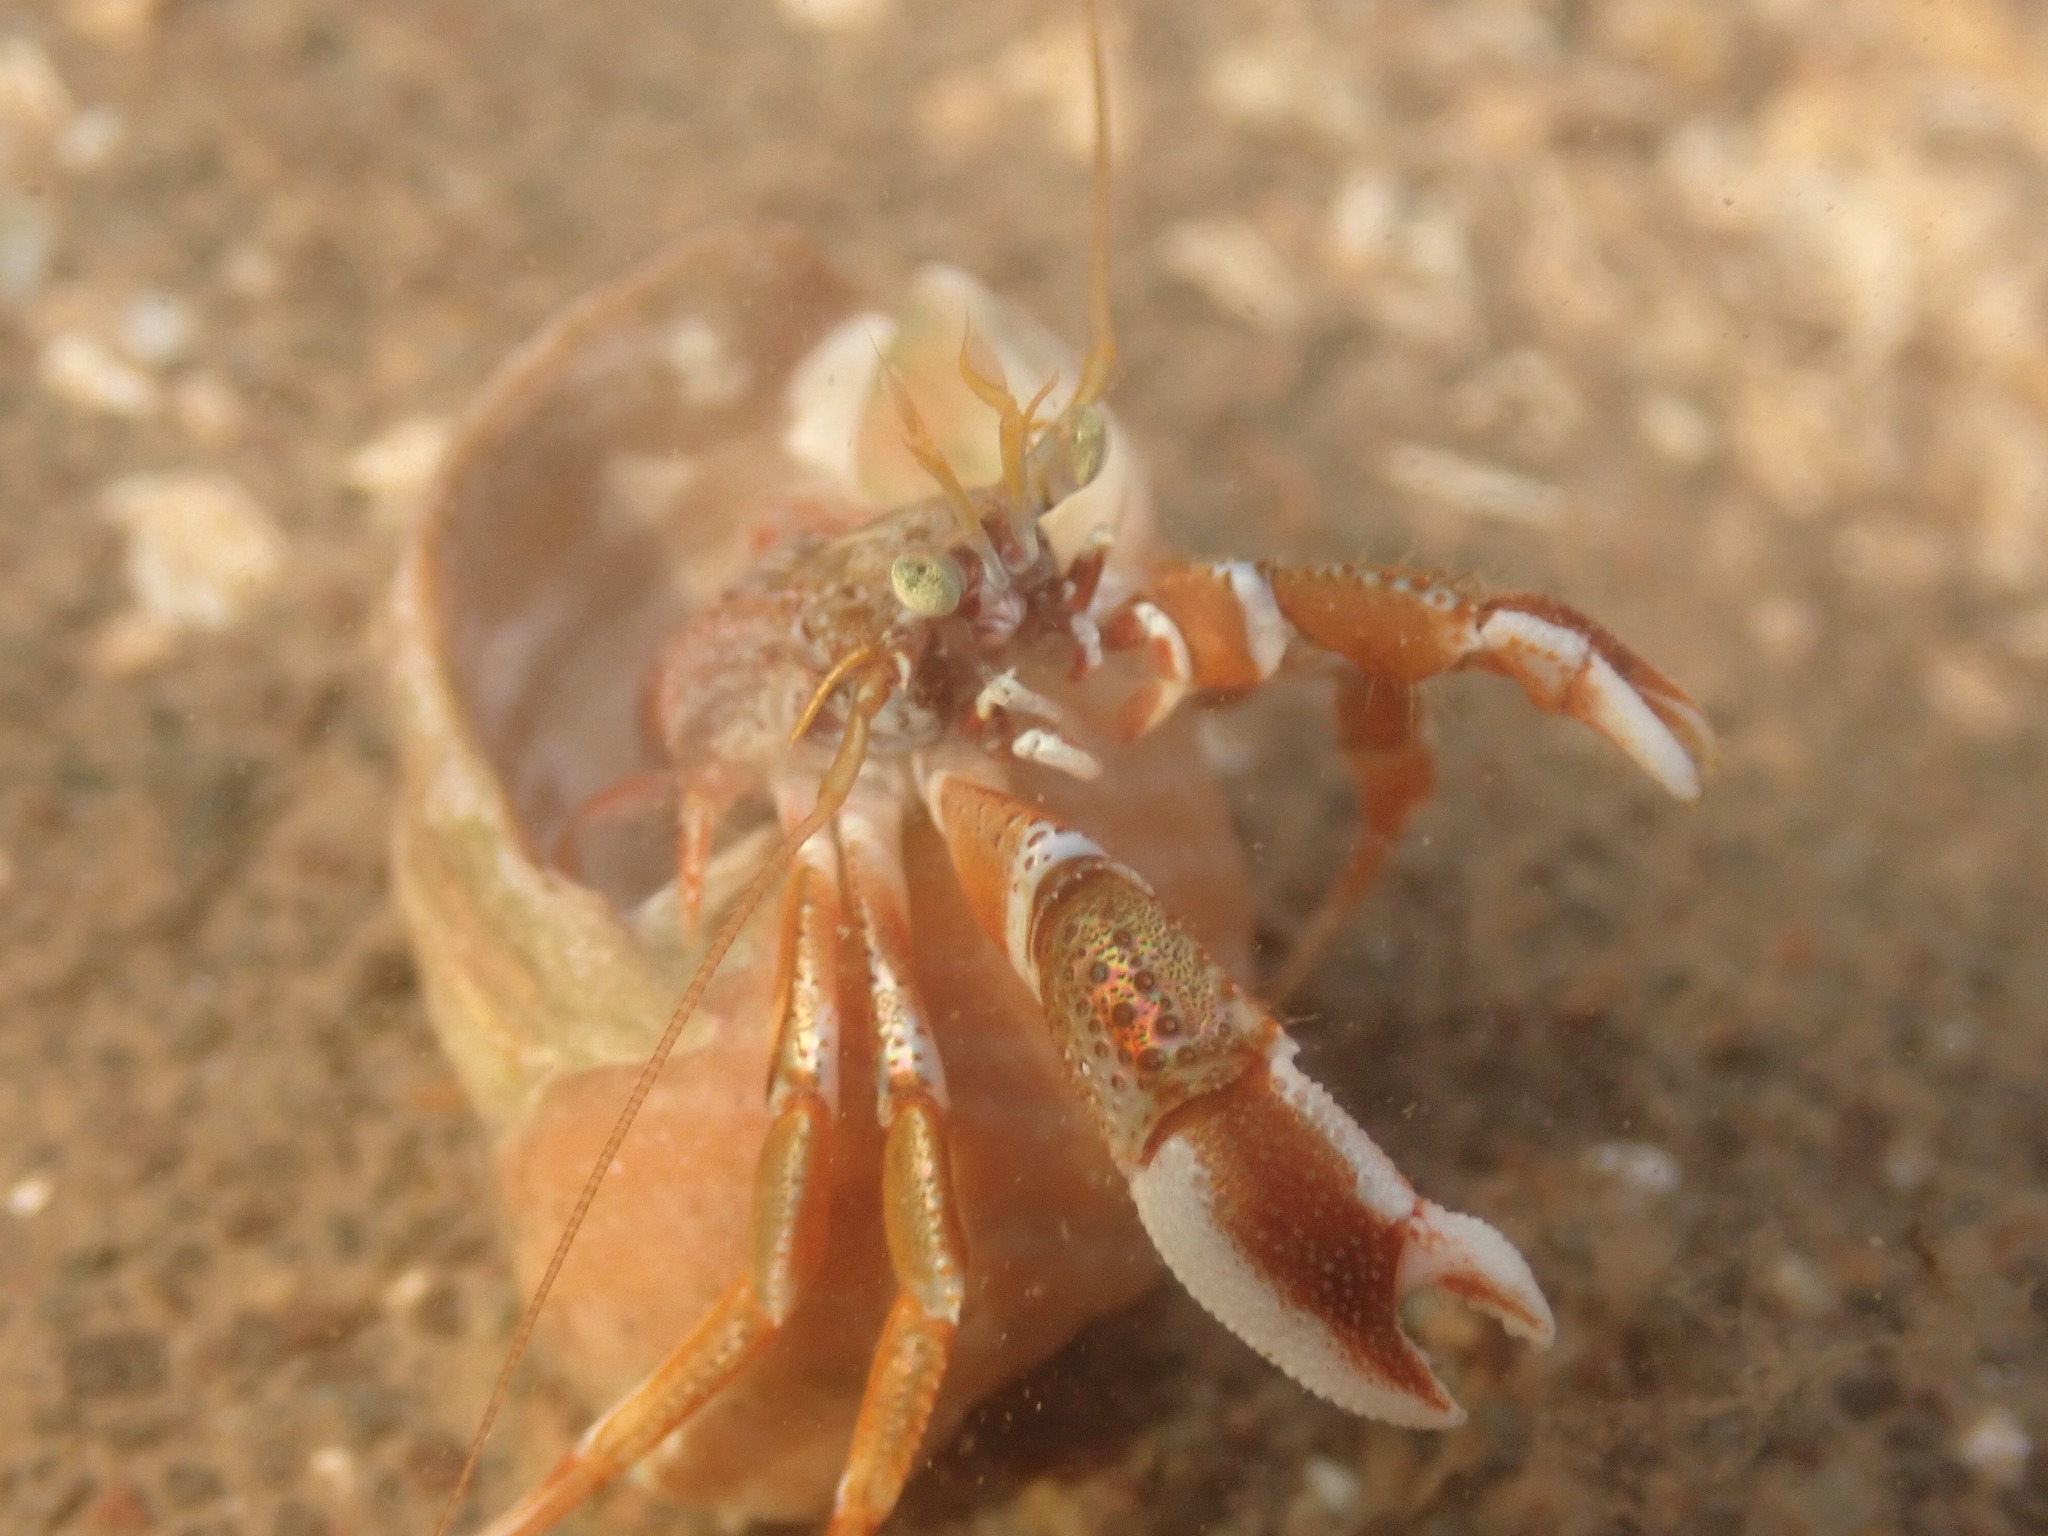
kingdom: Animalia
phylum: Arthropoda
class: Malacostraca
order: Decapoda
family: Paguridae
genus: Pagurus
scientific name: Pagurus acadianus
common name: Acadian hermit crab
